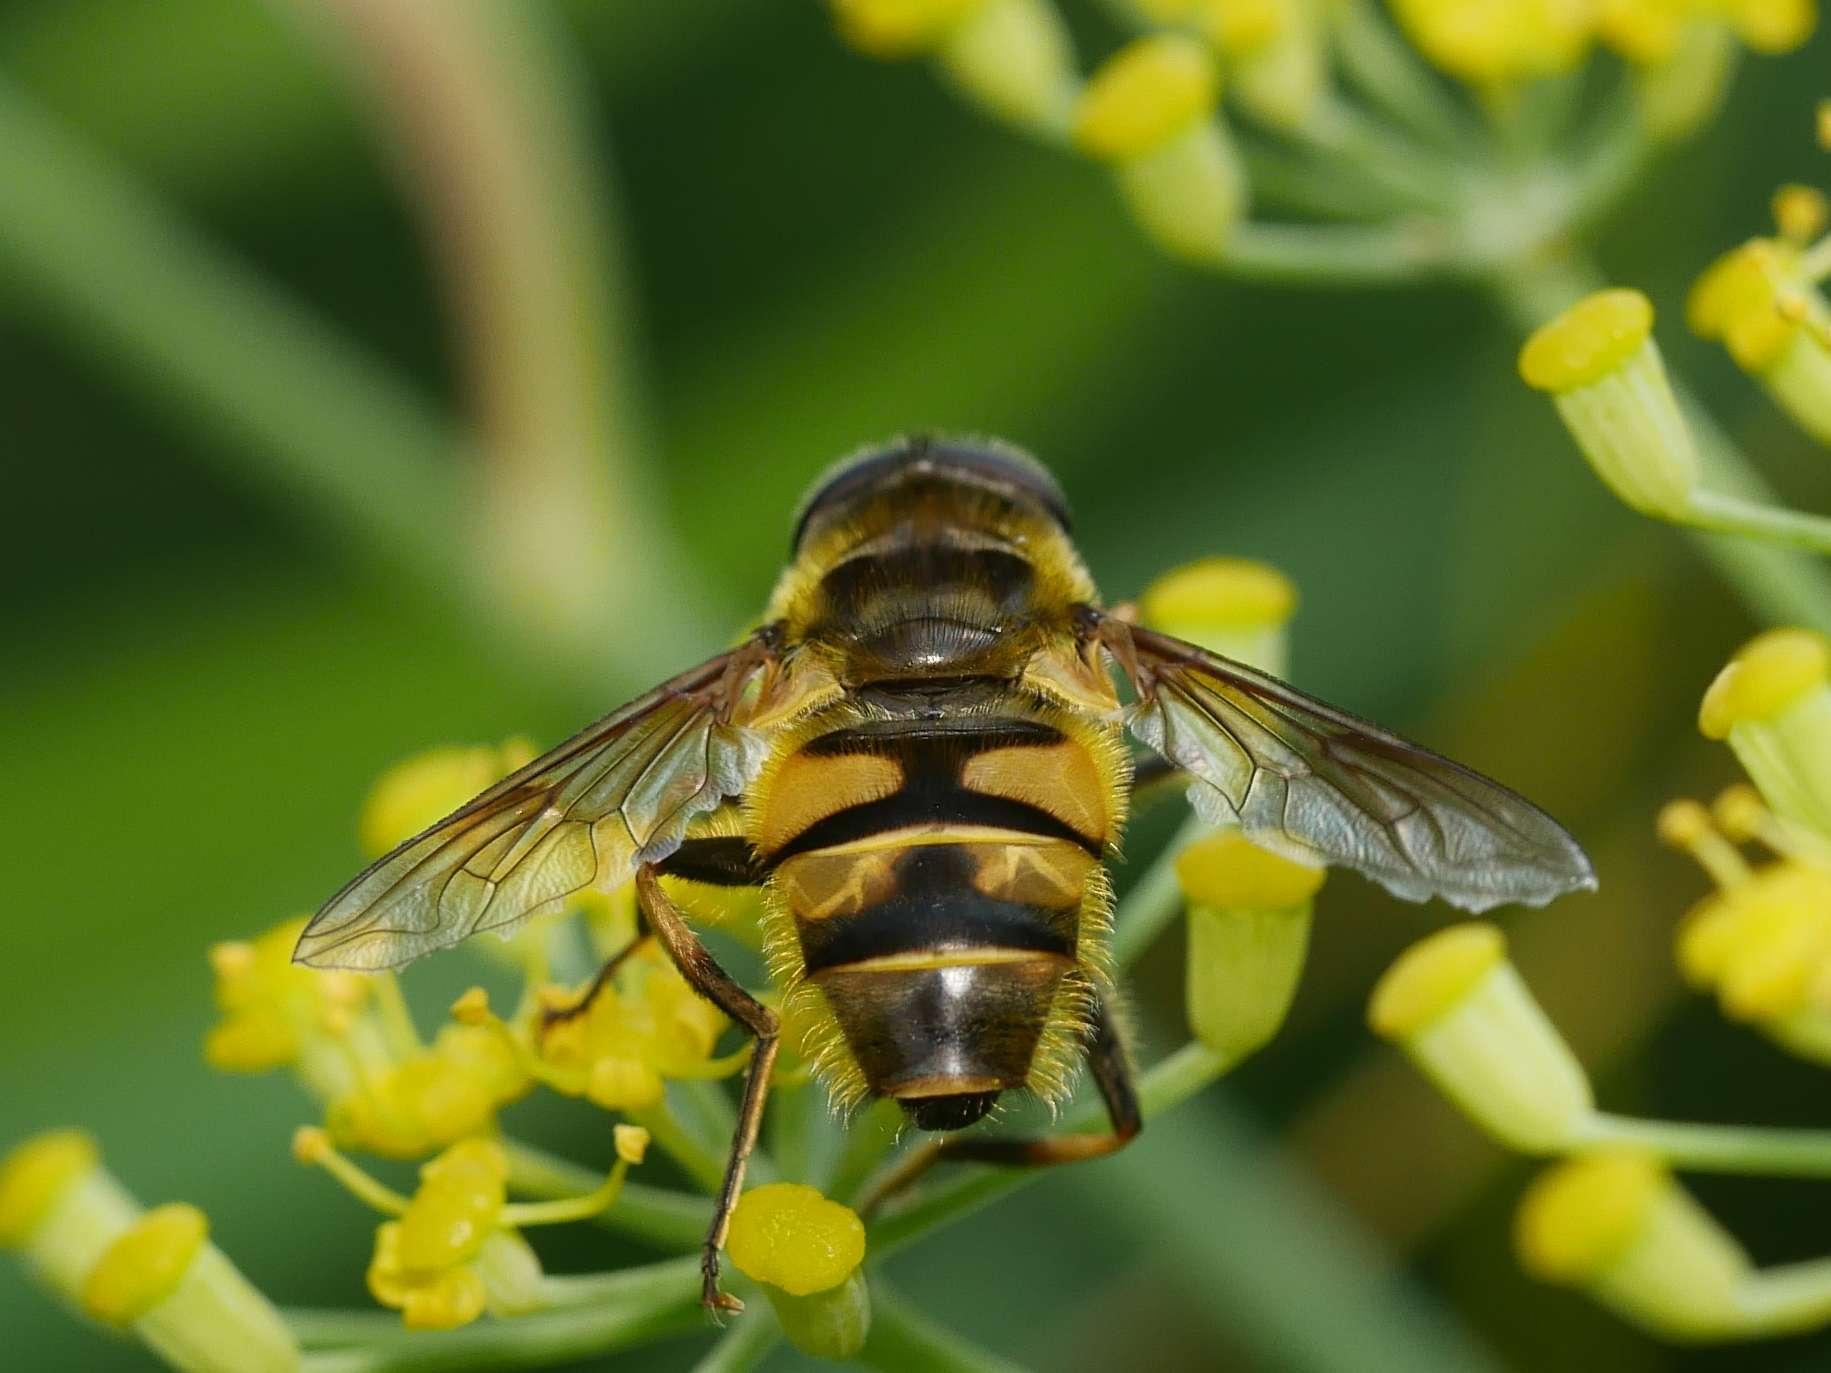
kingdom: Animalia
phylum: Arthropoda
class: Insecta
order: Diptera
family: Syrphidae
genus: Myathropa
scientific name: Myathropa florea
